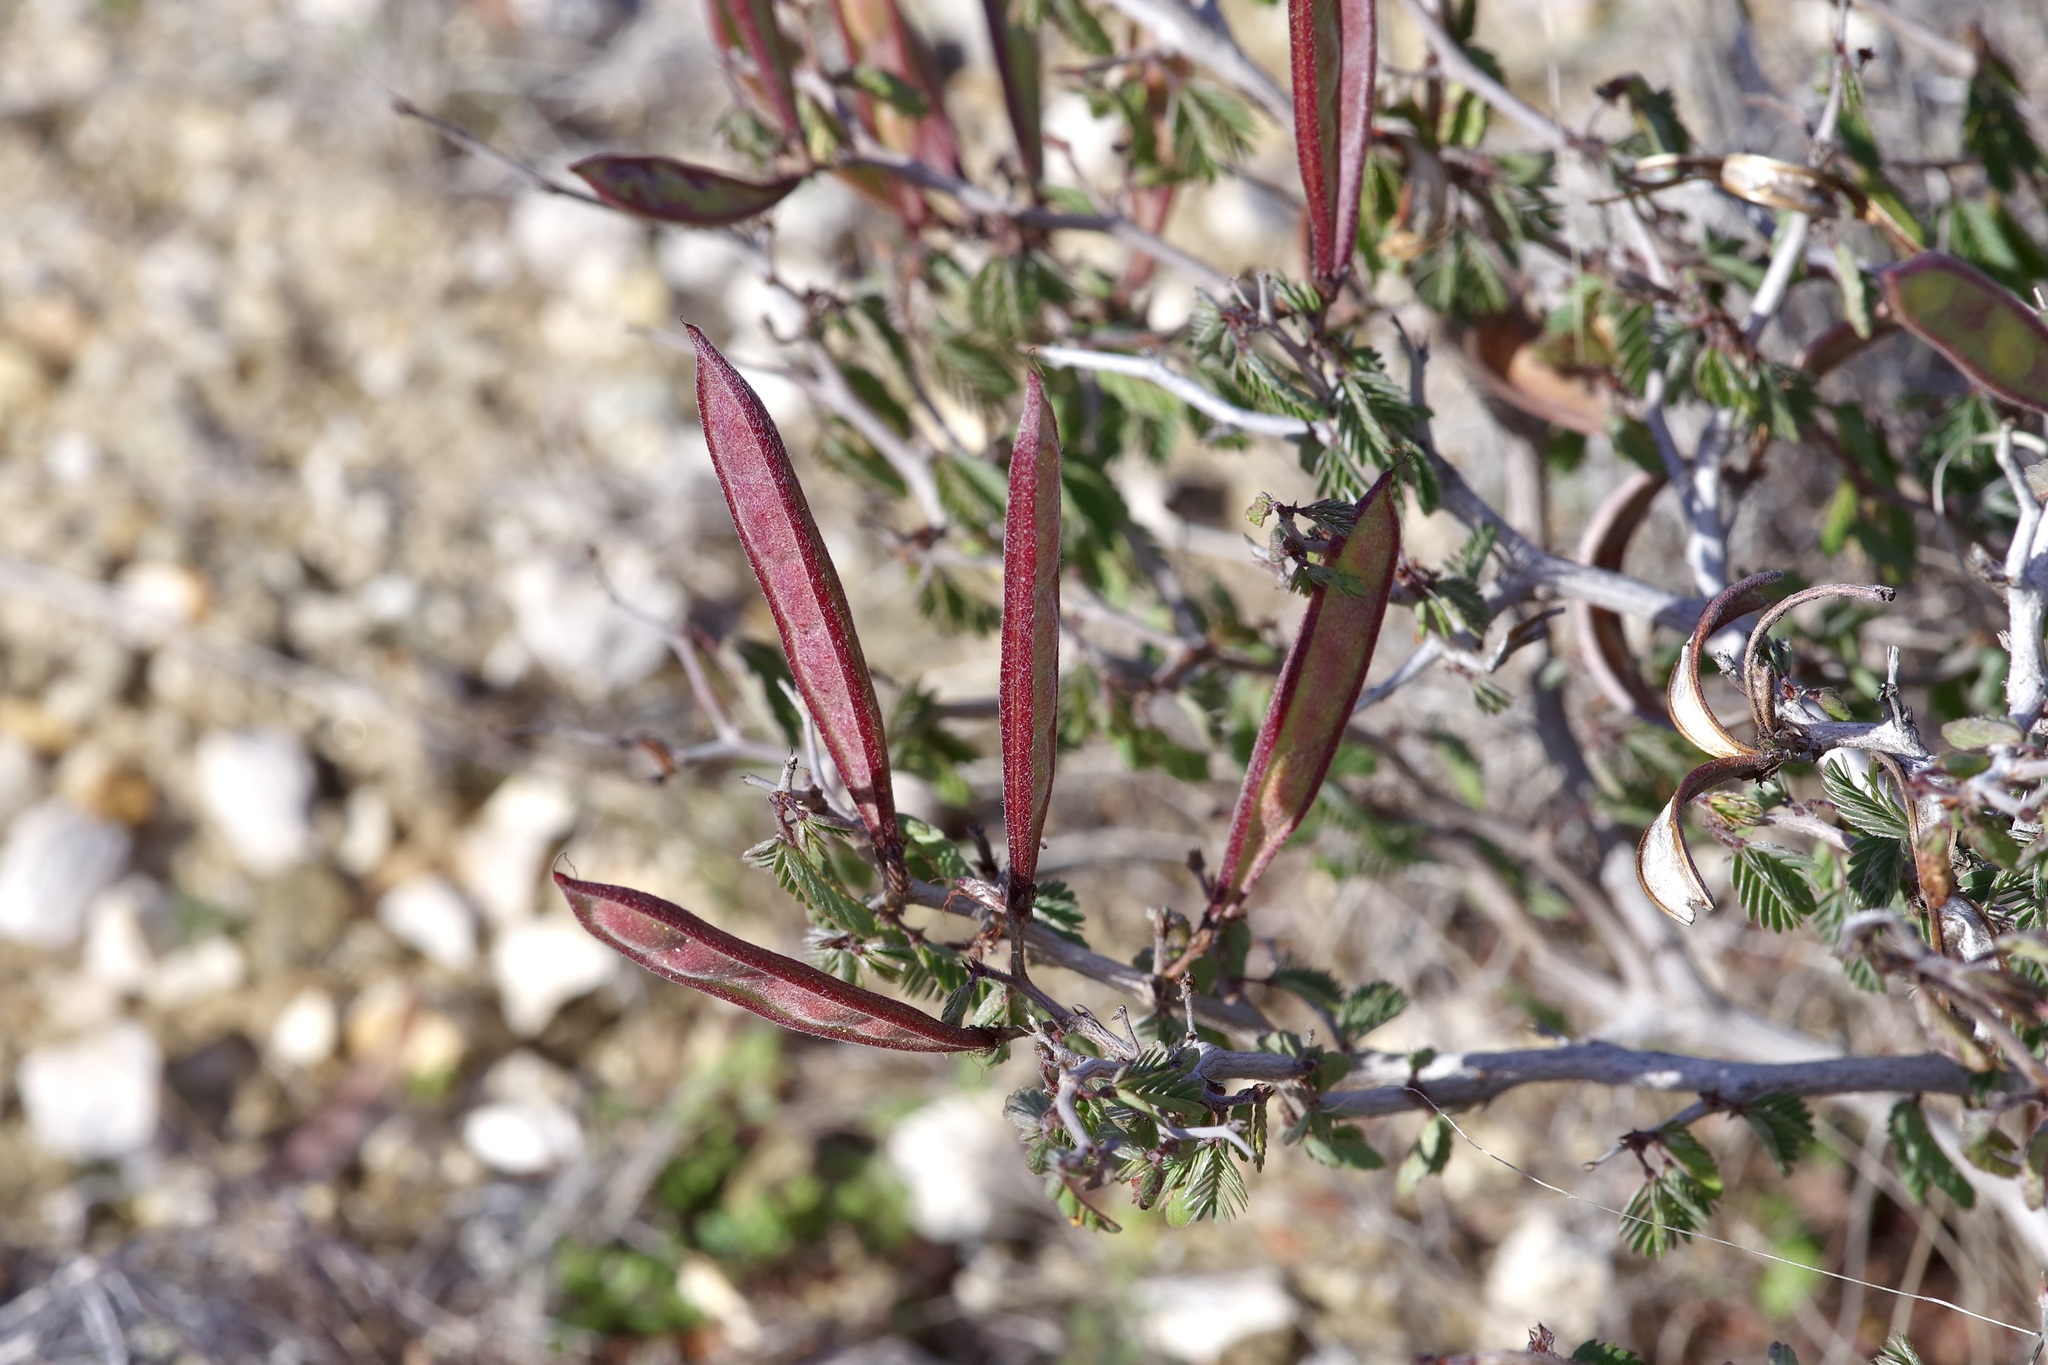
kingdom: Plantae
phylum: Tracheophyta
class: Magnoliopsida
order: Fabales
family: Fabaceae
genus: Calliandra
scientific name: Calliandra conferta
